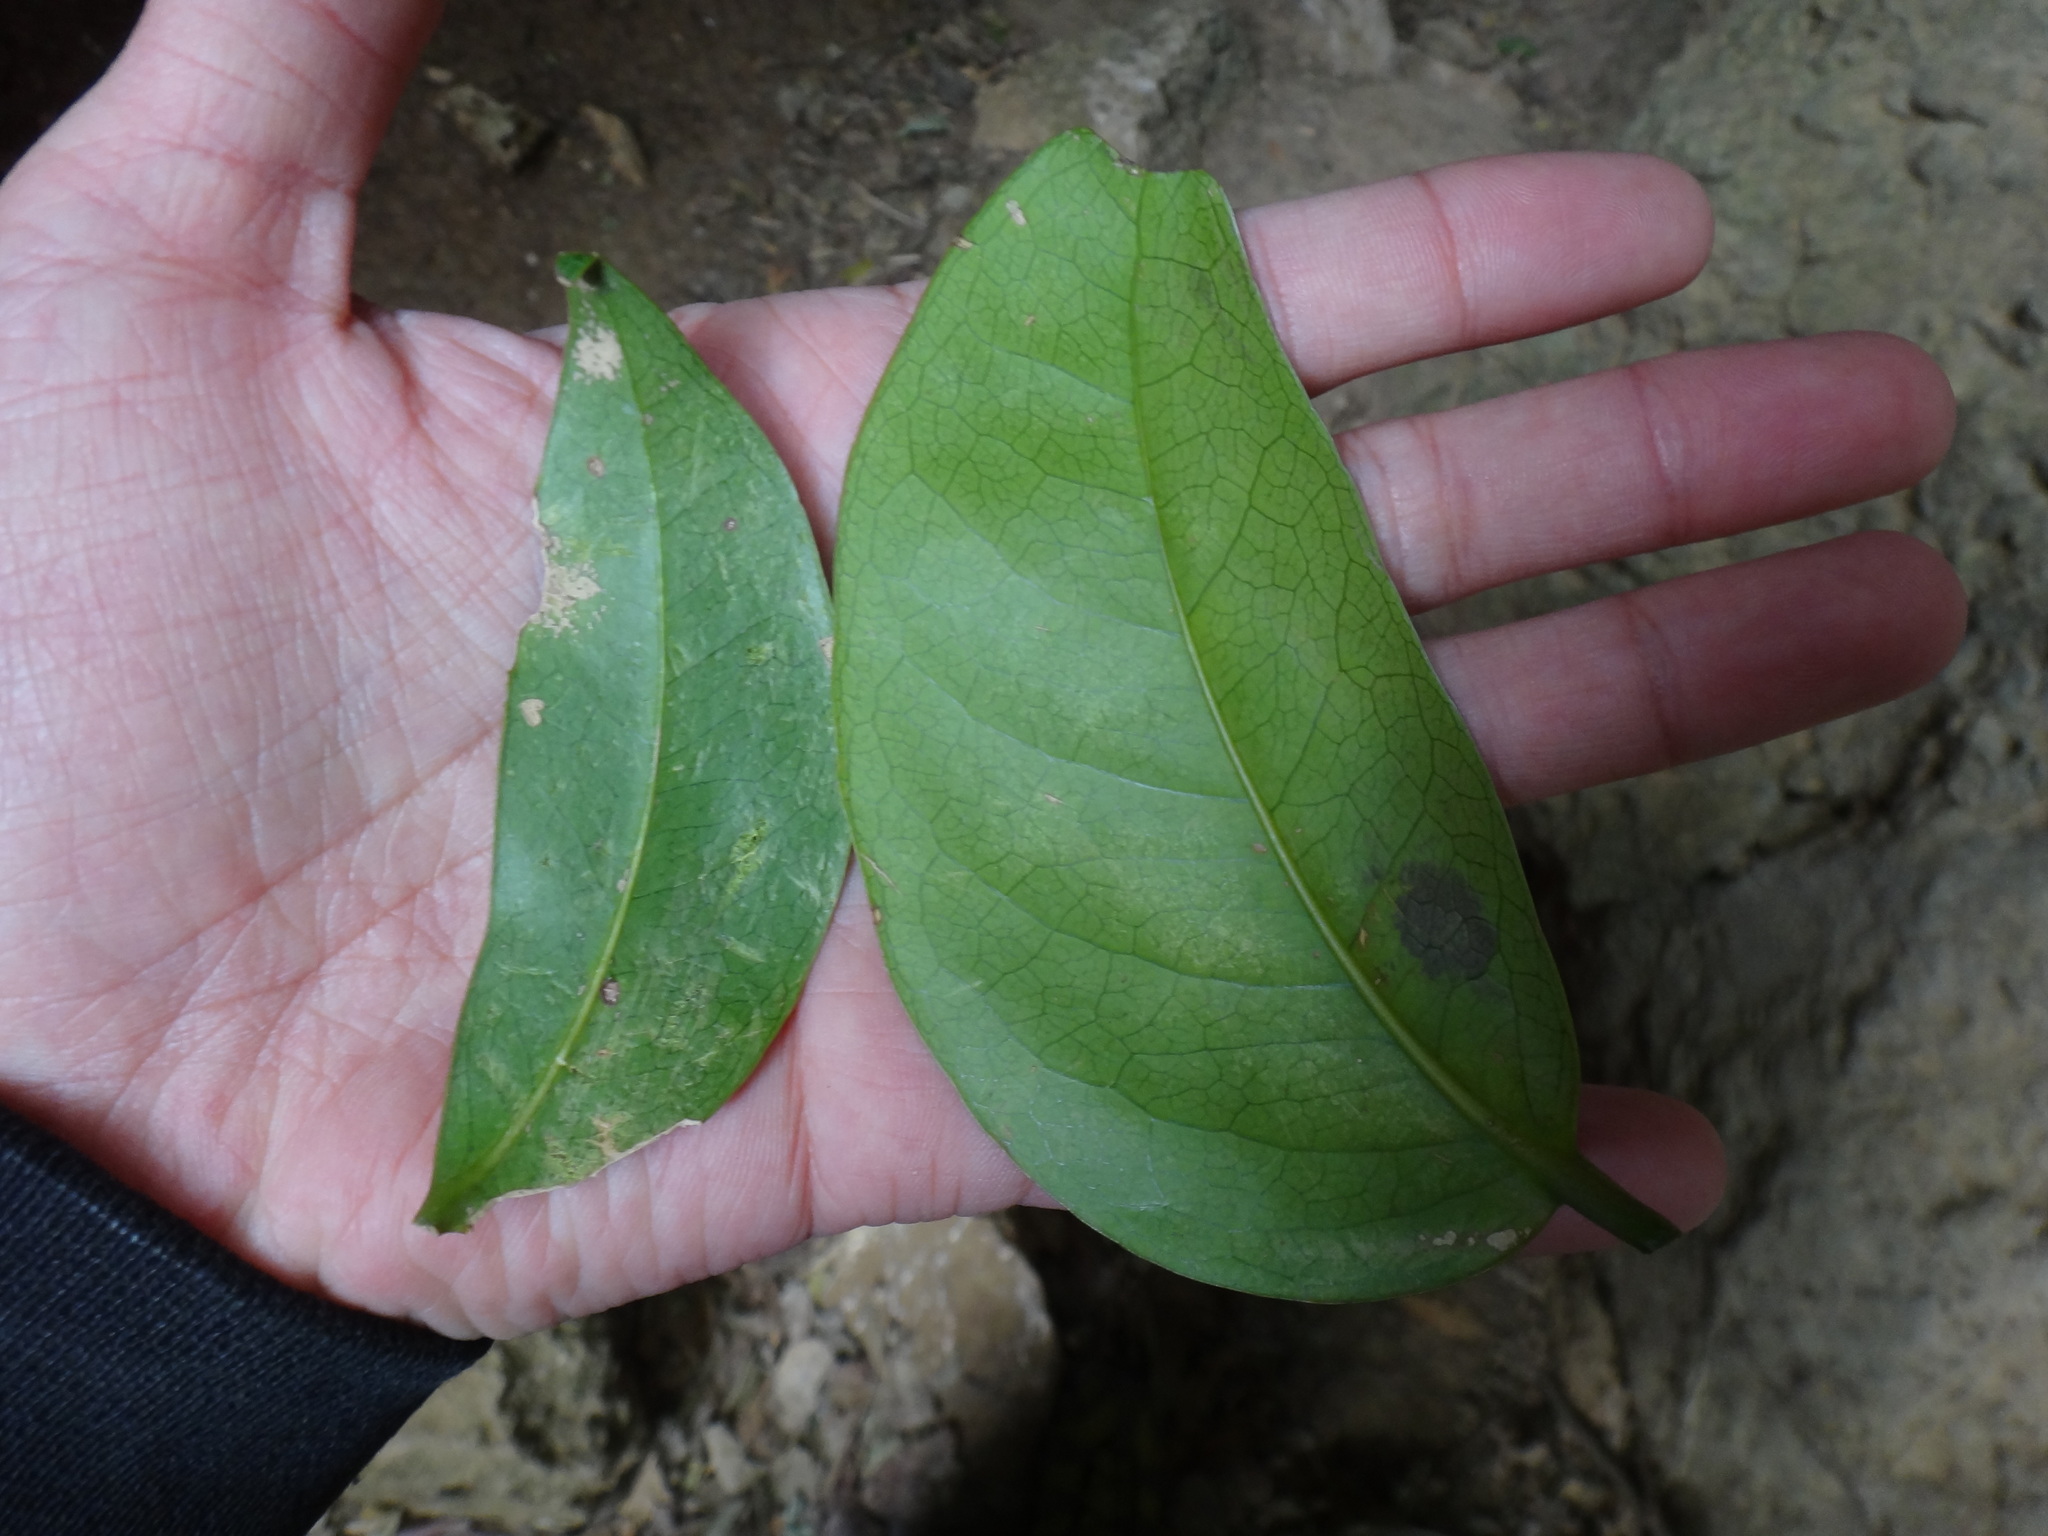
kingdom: Plantae
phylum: Tracheophyta
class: Magnoliopsida
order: Malpighiales
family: Putranjivaceae
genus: Drypetes
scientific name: Drypetes littoralis
